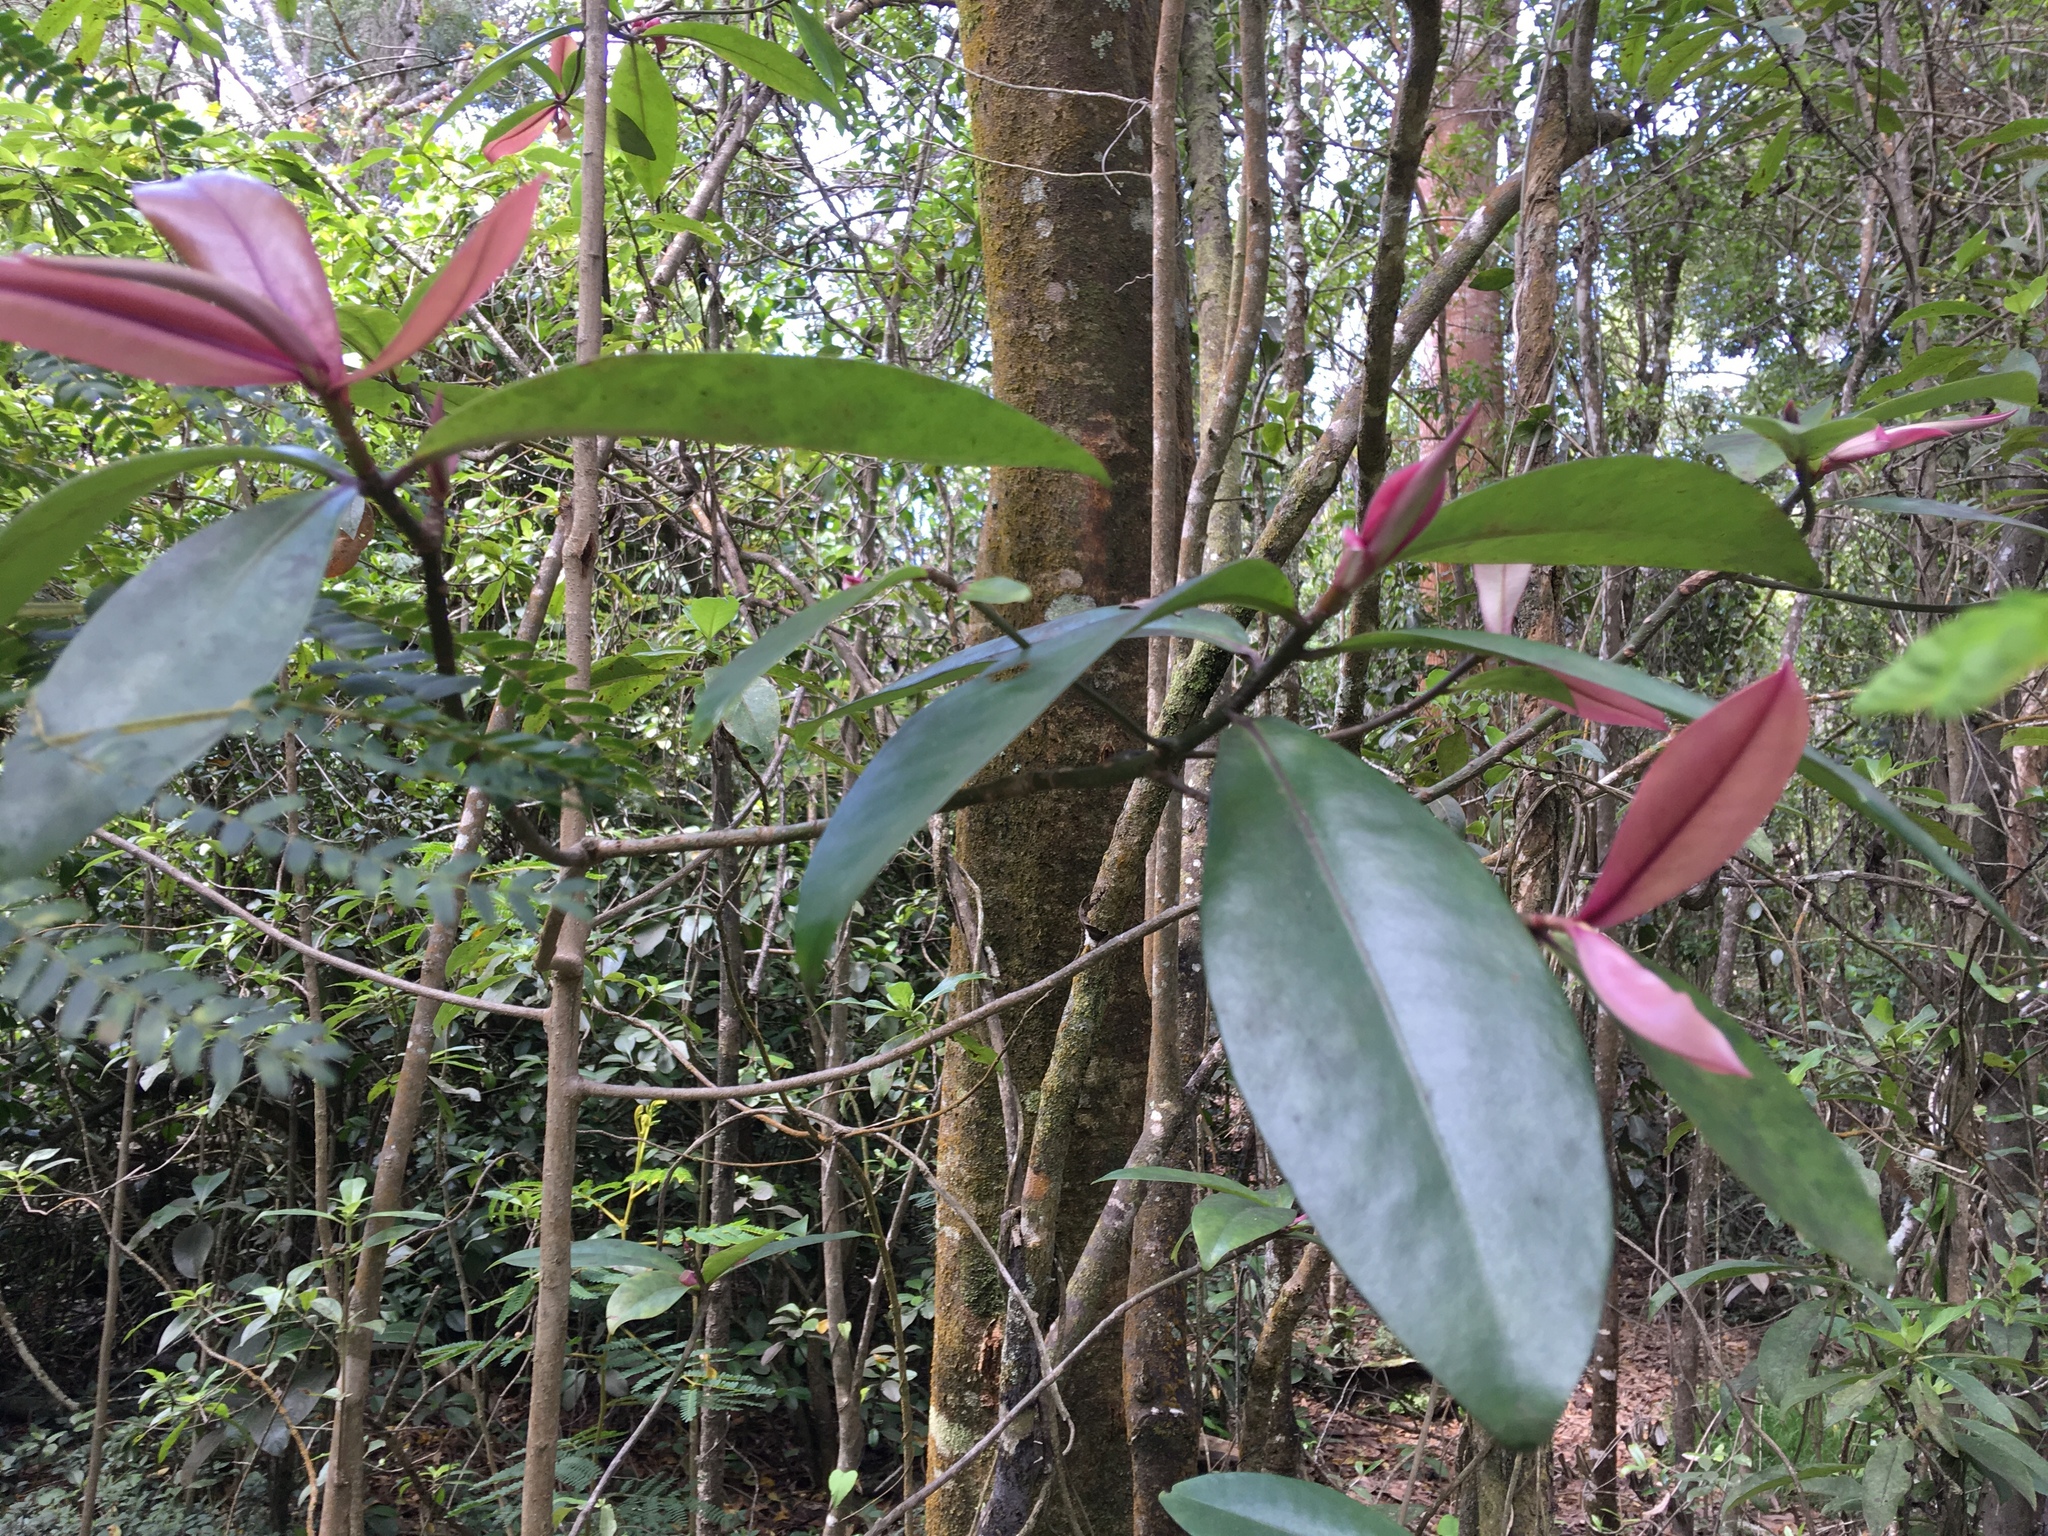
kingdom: Plantae
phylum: Tracheophyta
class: Magnoliopsida
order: Ericales
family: Primulaceae
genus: Myrsine
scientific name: Myrsine lessertiana
